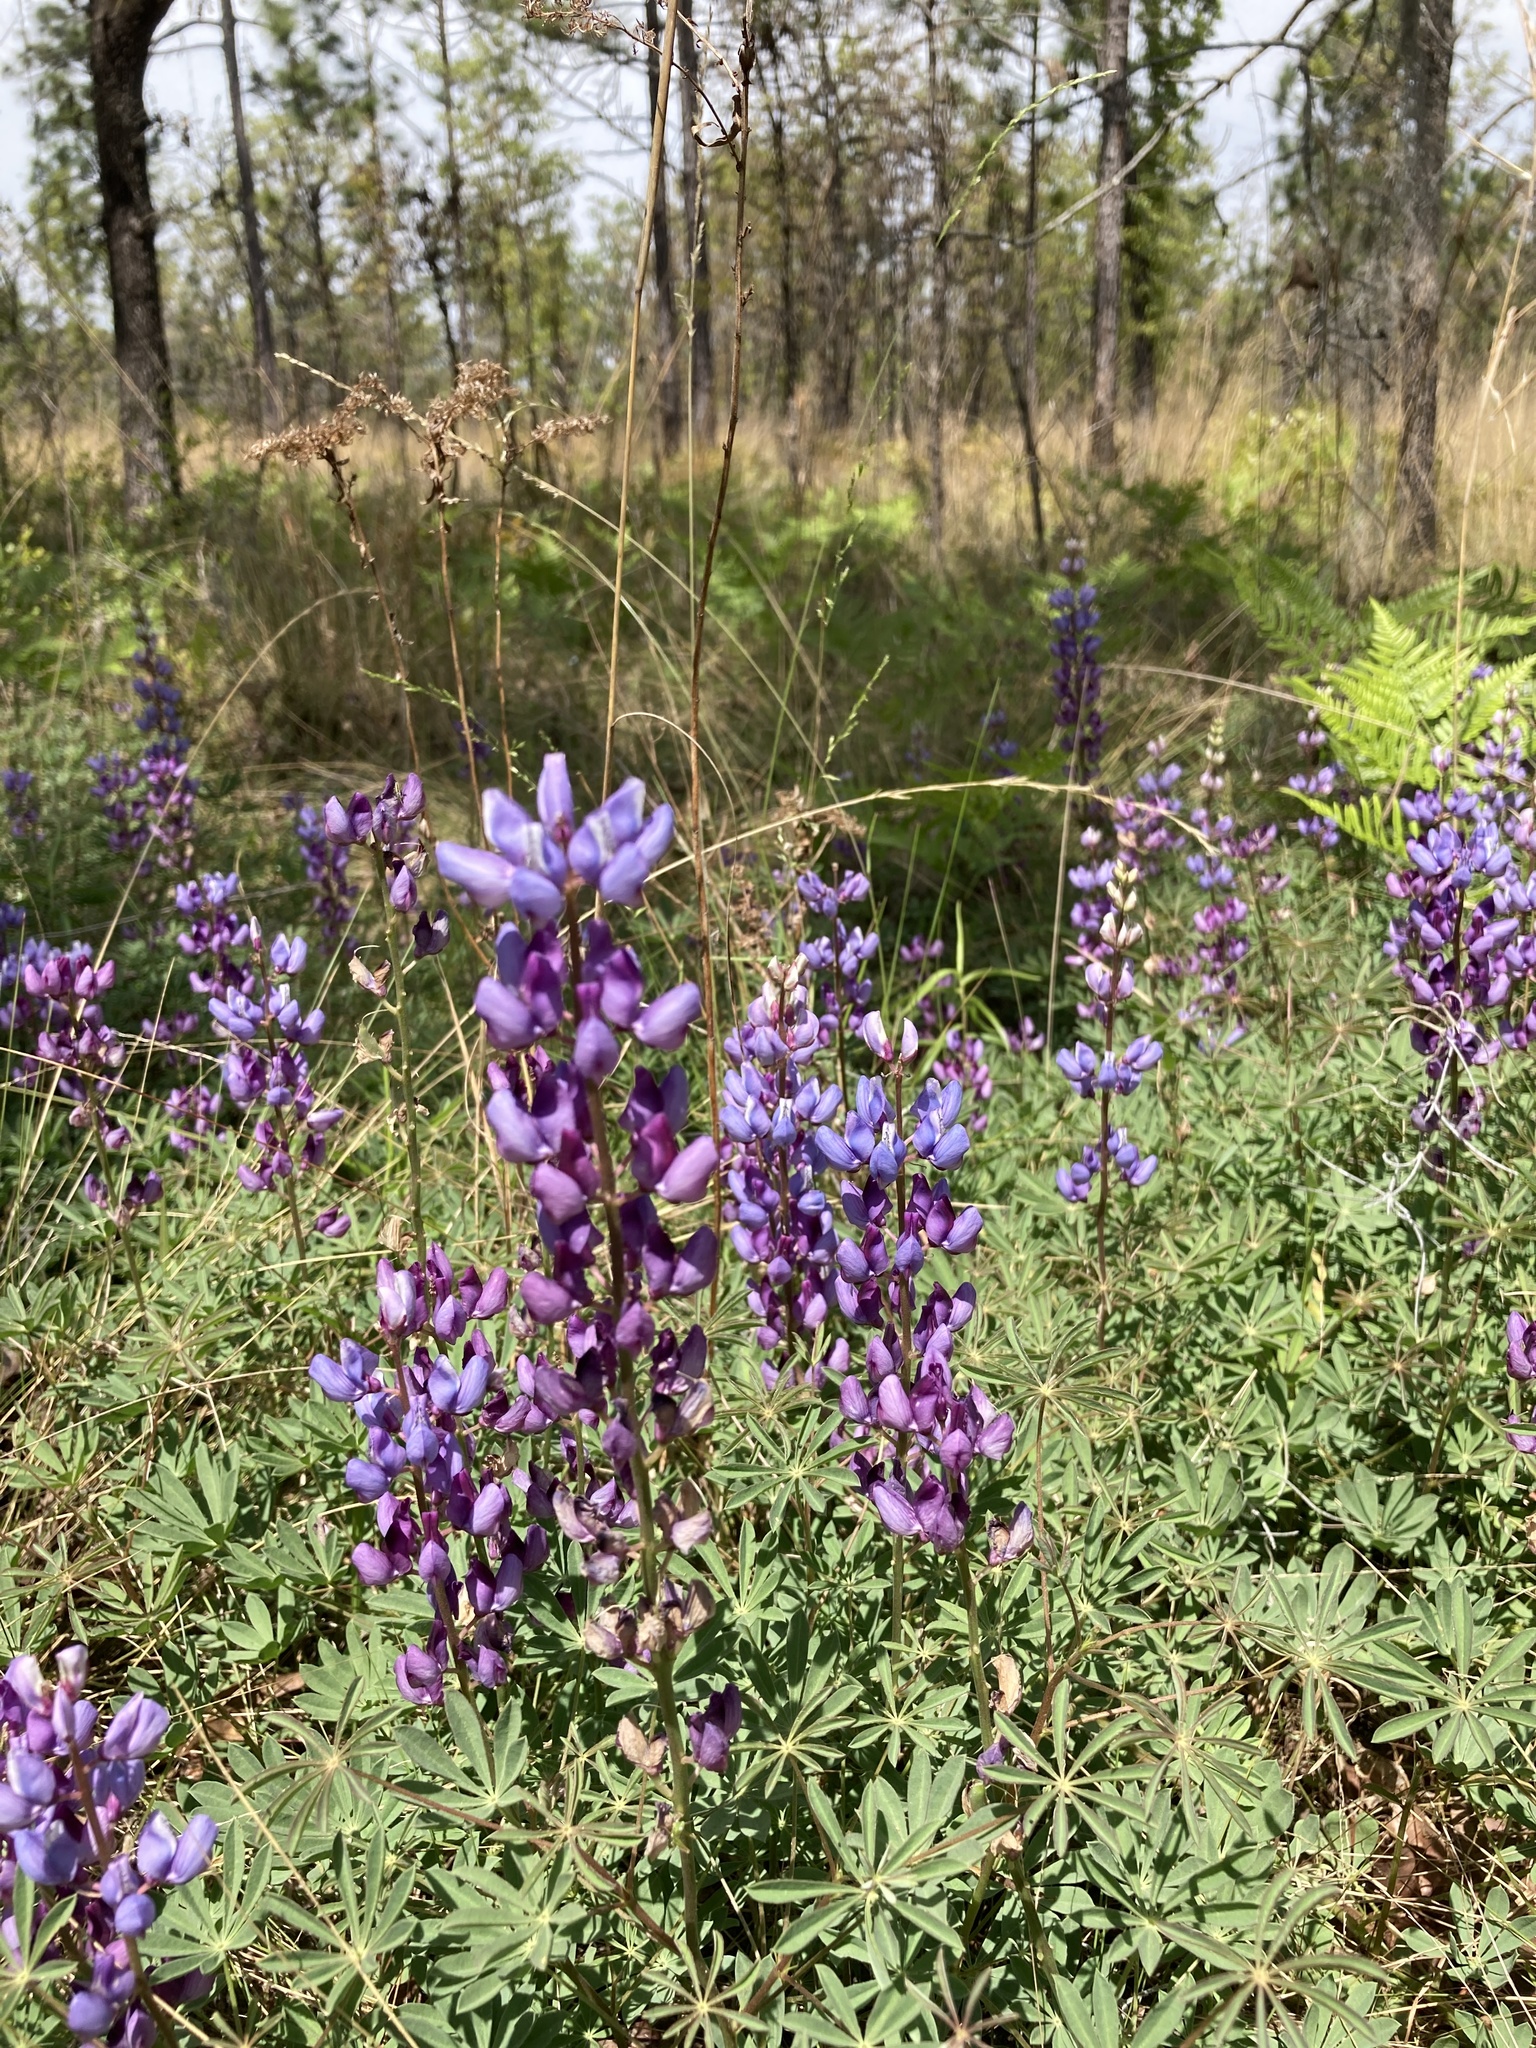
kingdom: Plantae
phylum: Tracheophyta
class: Magnoliopsida
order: Fabales
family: Fabaceae
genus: Lupinus
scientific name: Lupinus perennis
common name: Sundial lupine
